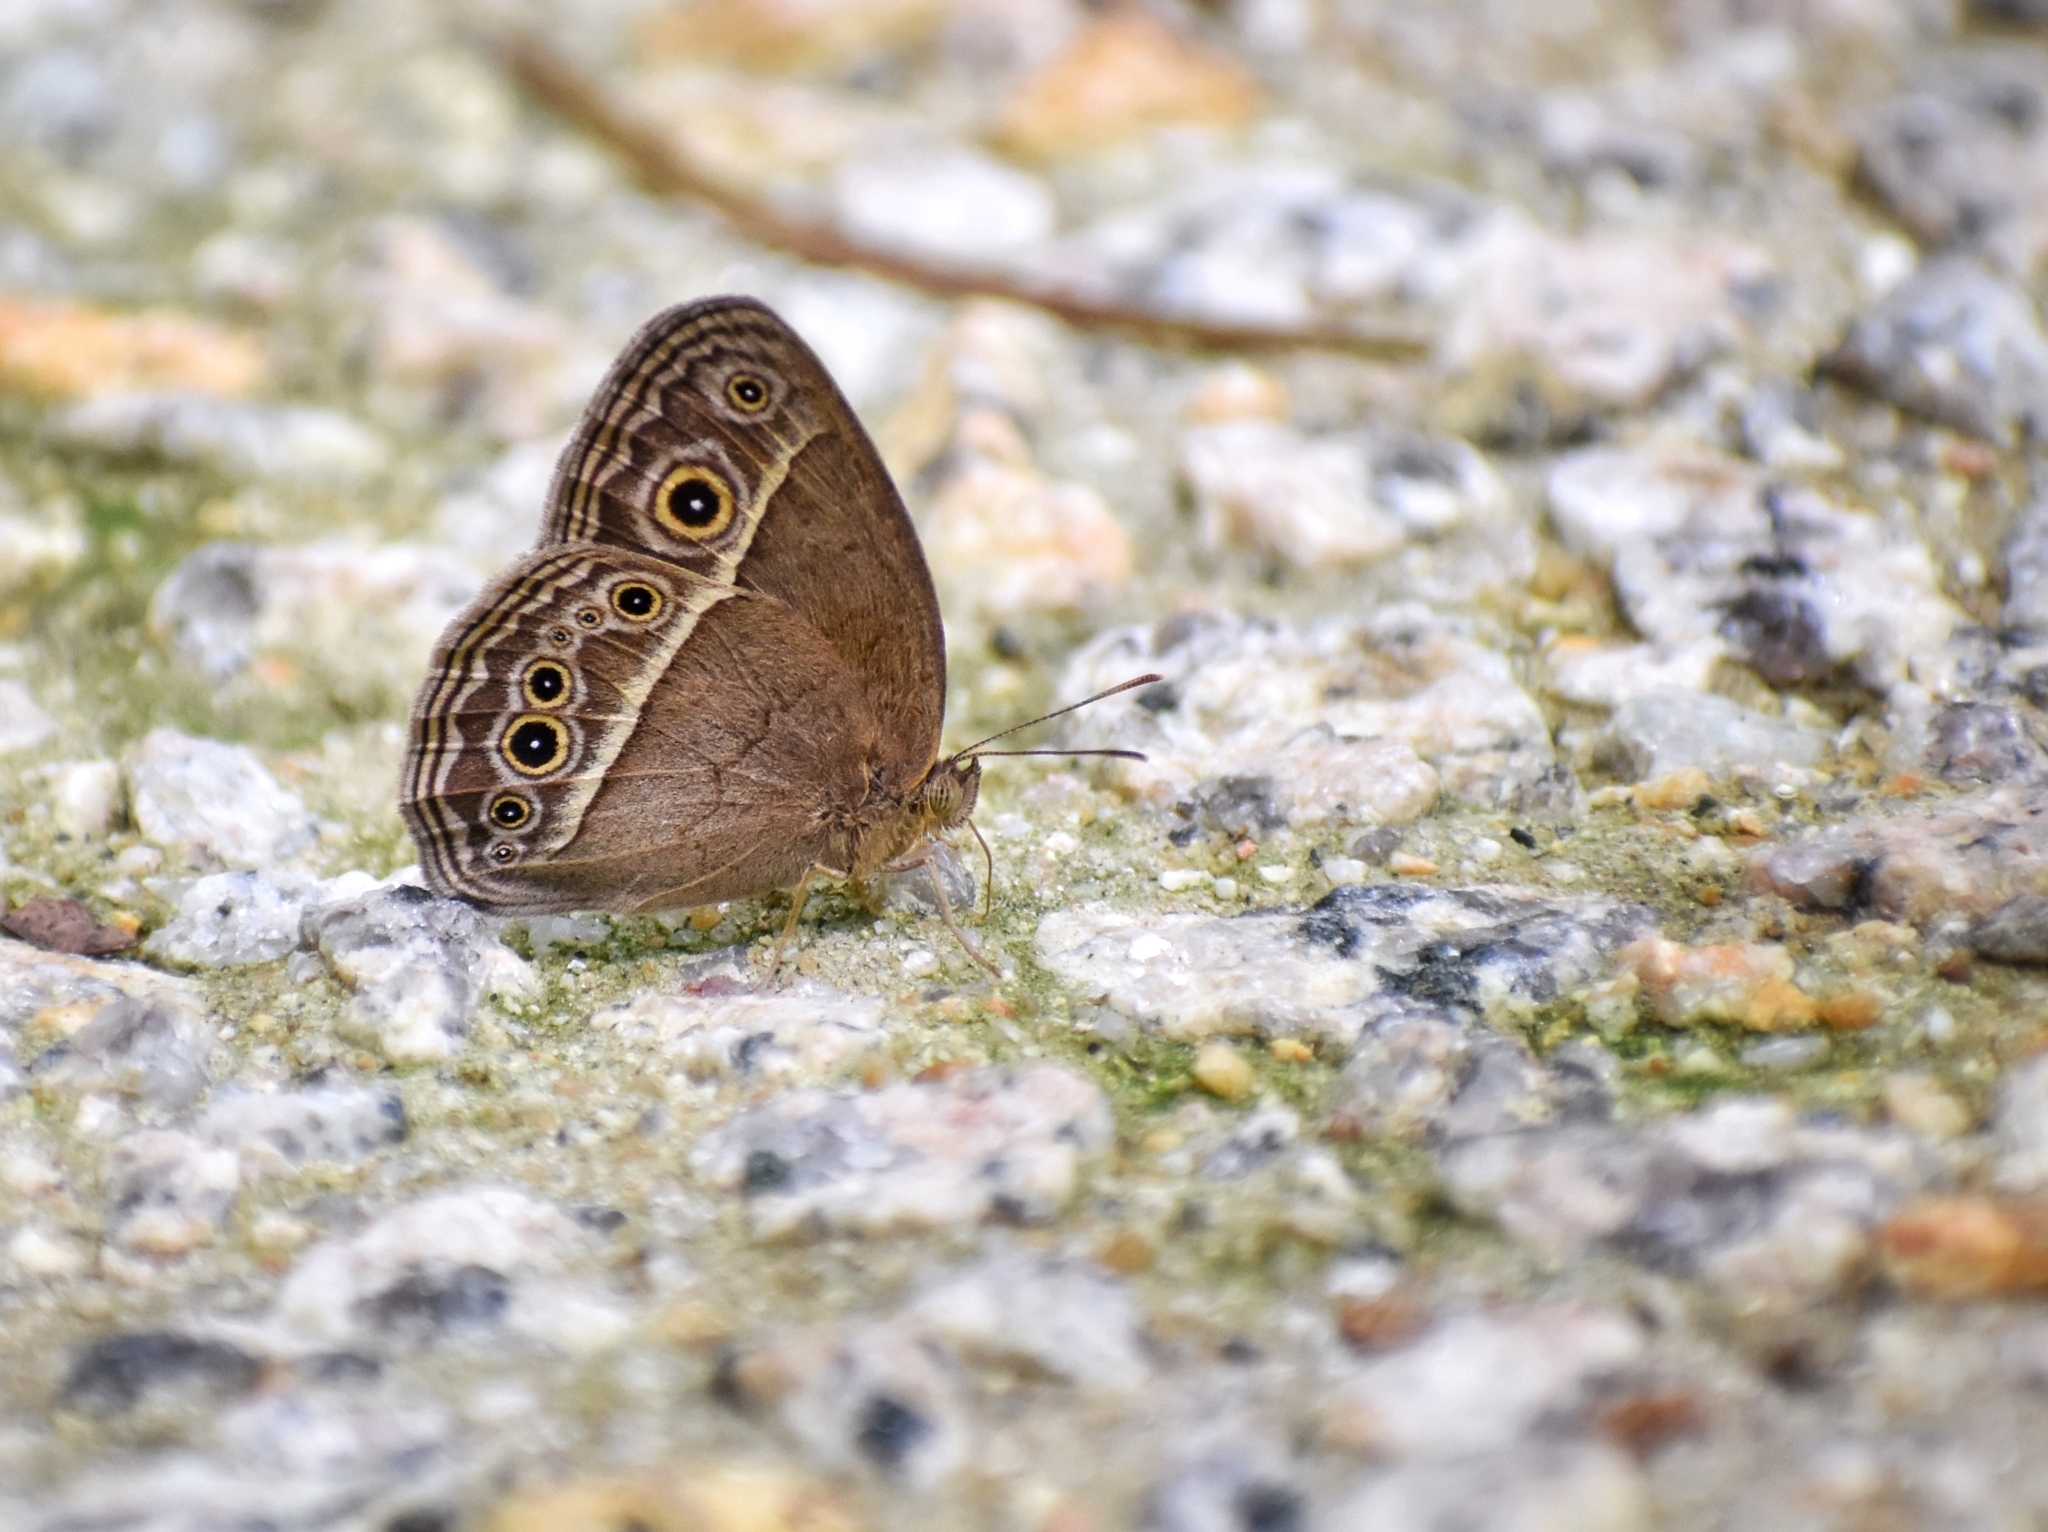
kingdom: Animalia
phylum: Arthropoda
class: Insecta
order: Lepidoptera
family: Nymphalidae
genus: Mycalesis
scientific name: Mycalesis mineus
